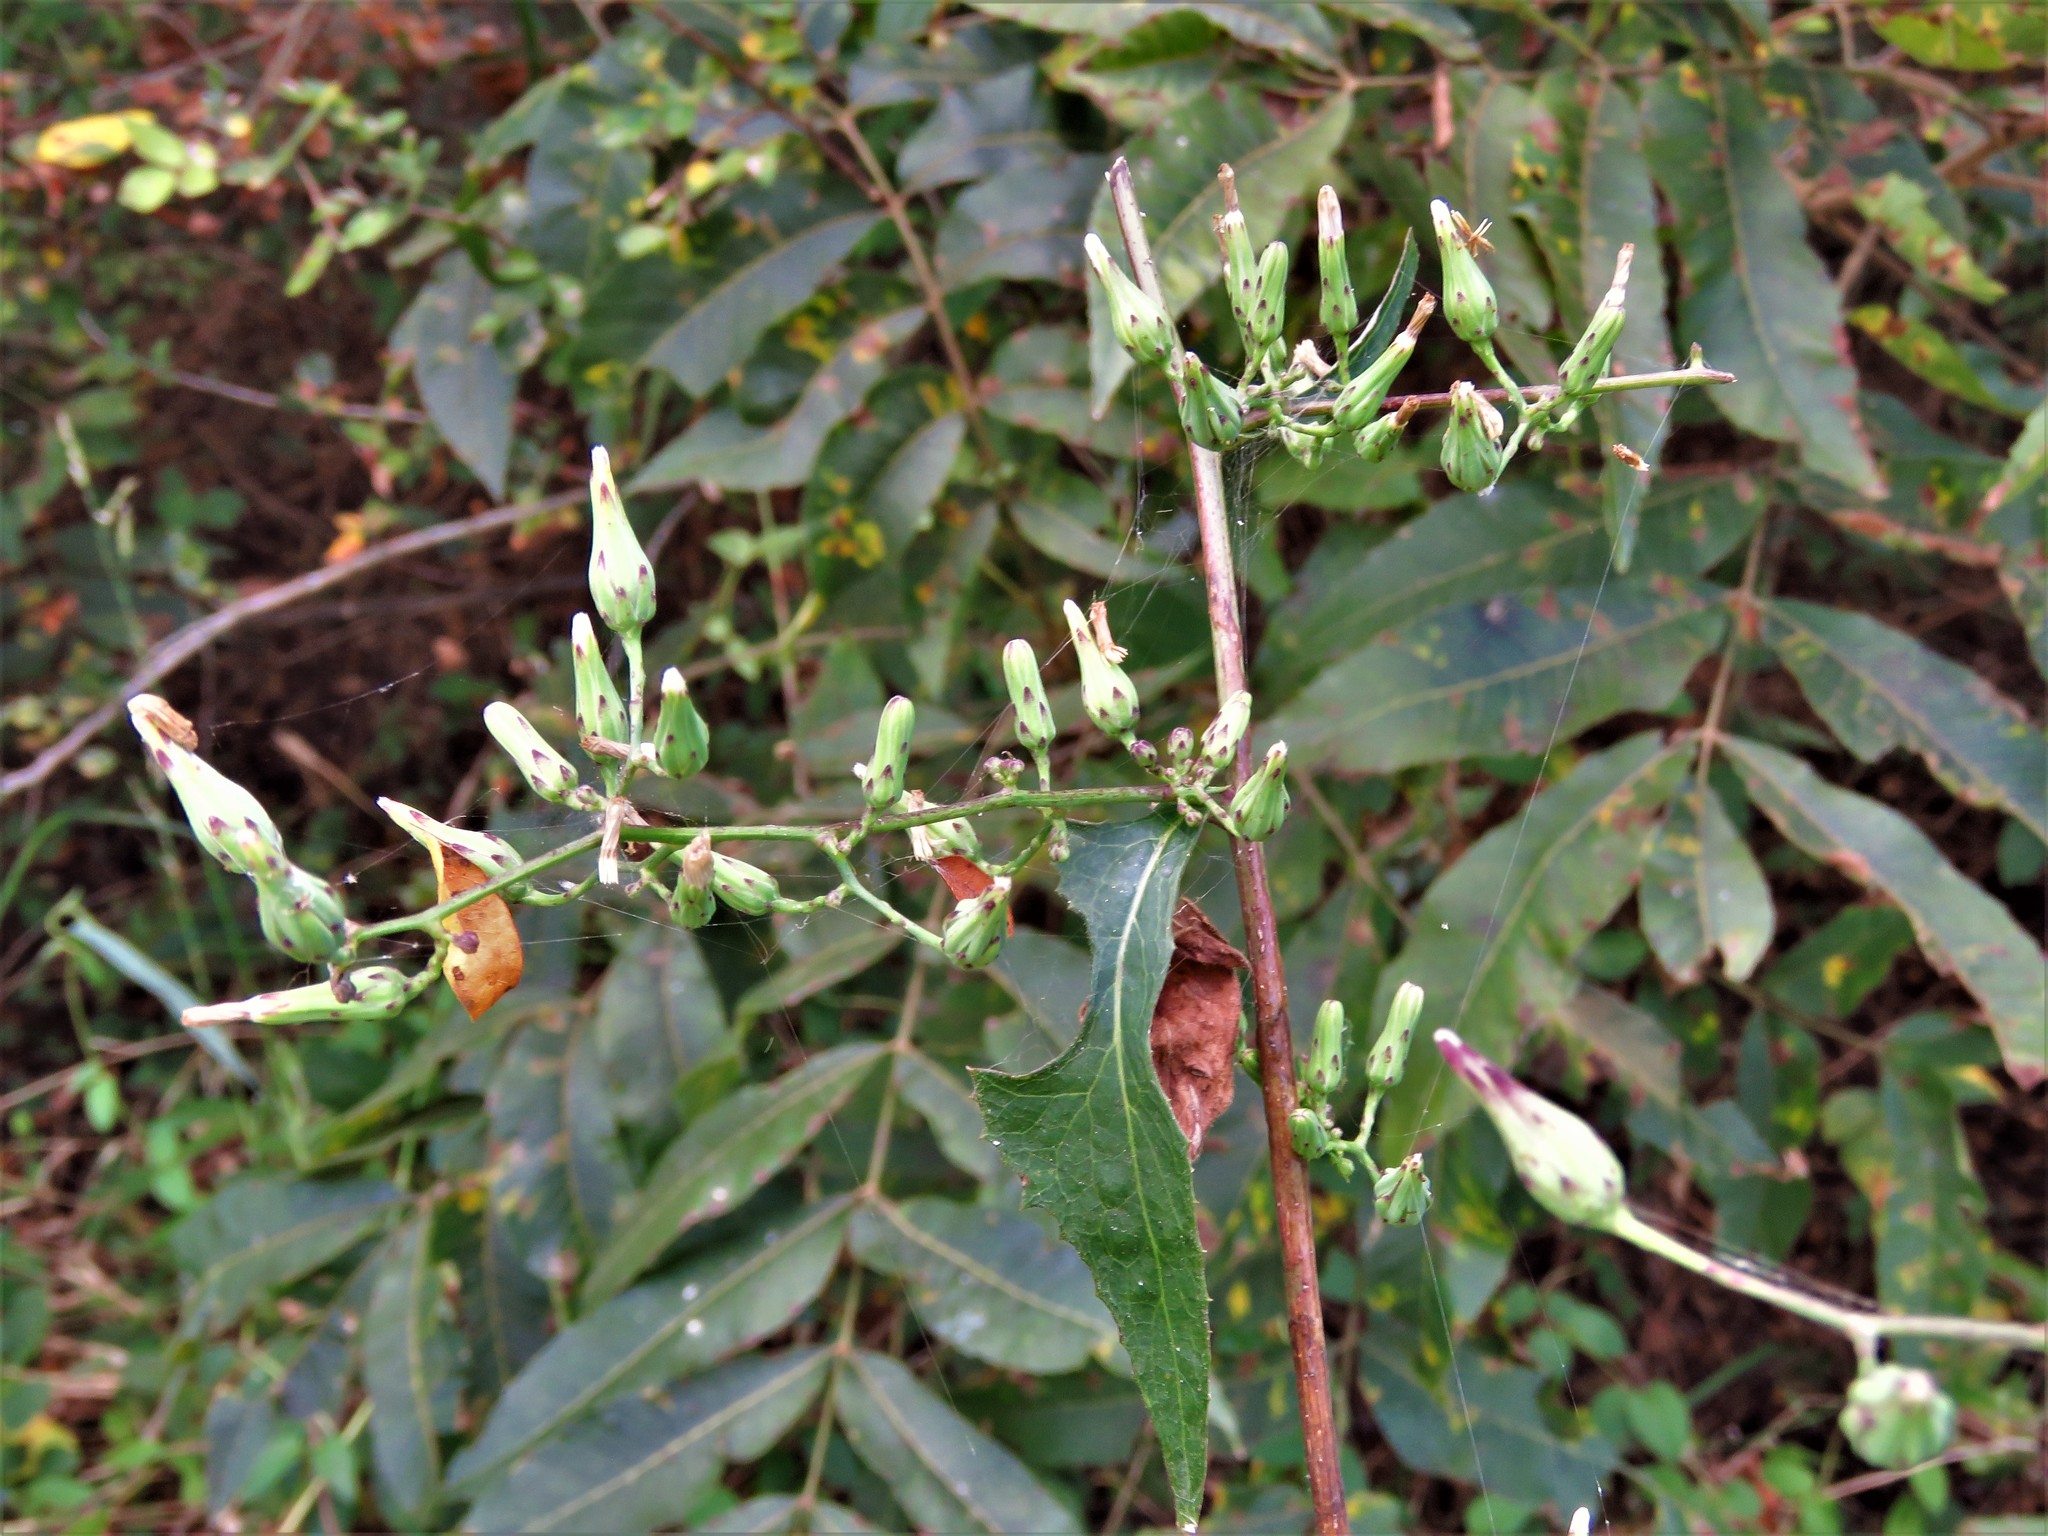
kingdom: Plantae
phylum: Tracheophyta
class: Magnoliopsida
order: Asterales
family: Asteraceae
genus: Lactuca
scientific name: Lactuca floridana
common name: Woodland lettuce
